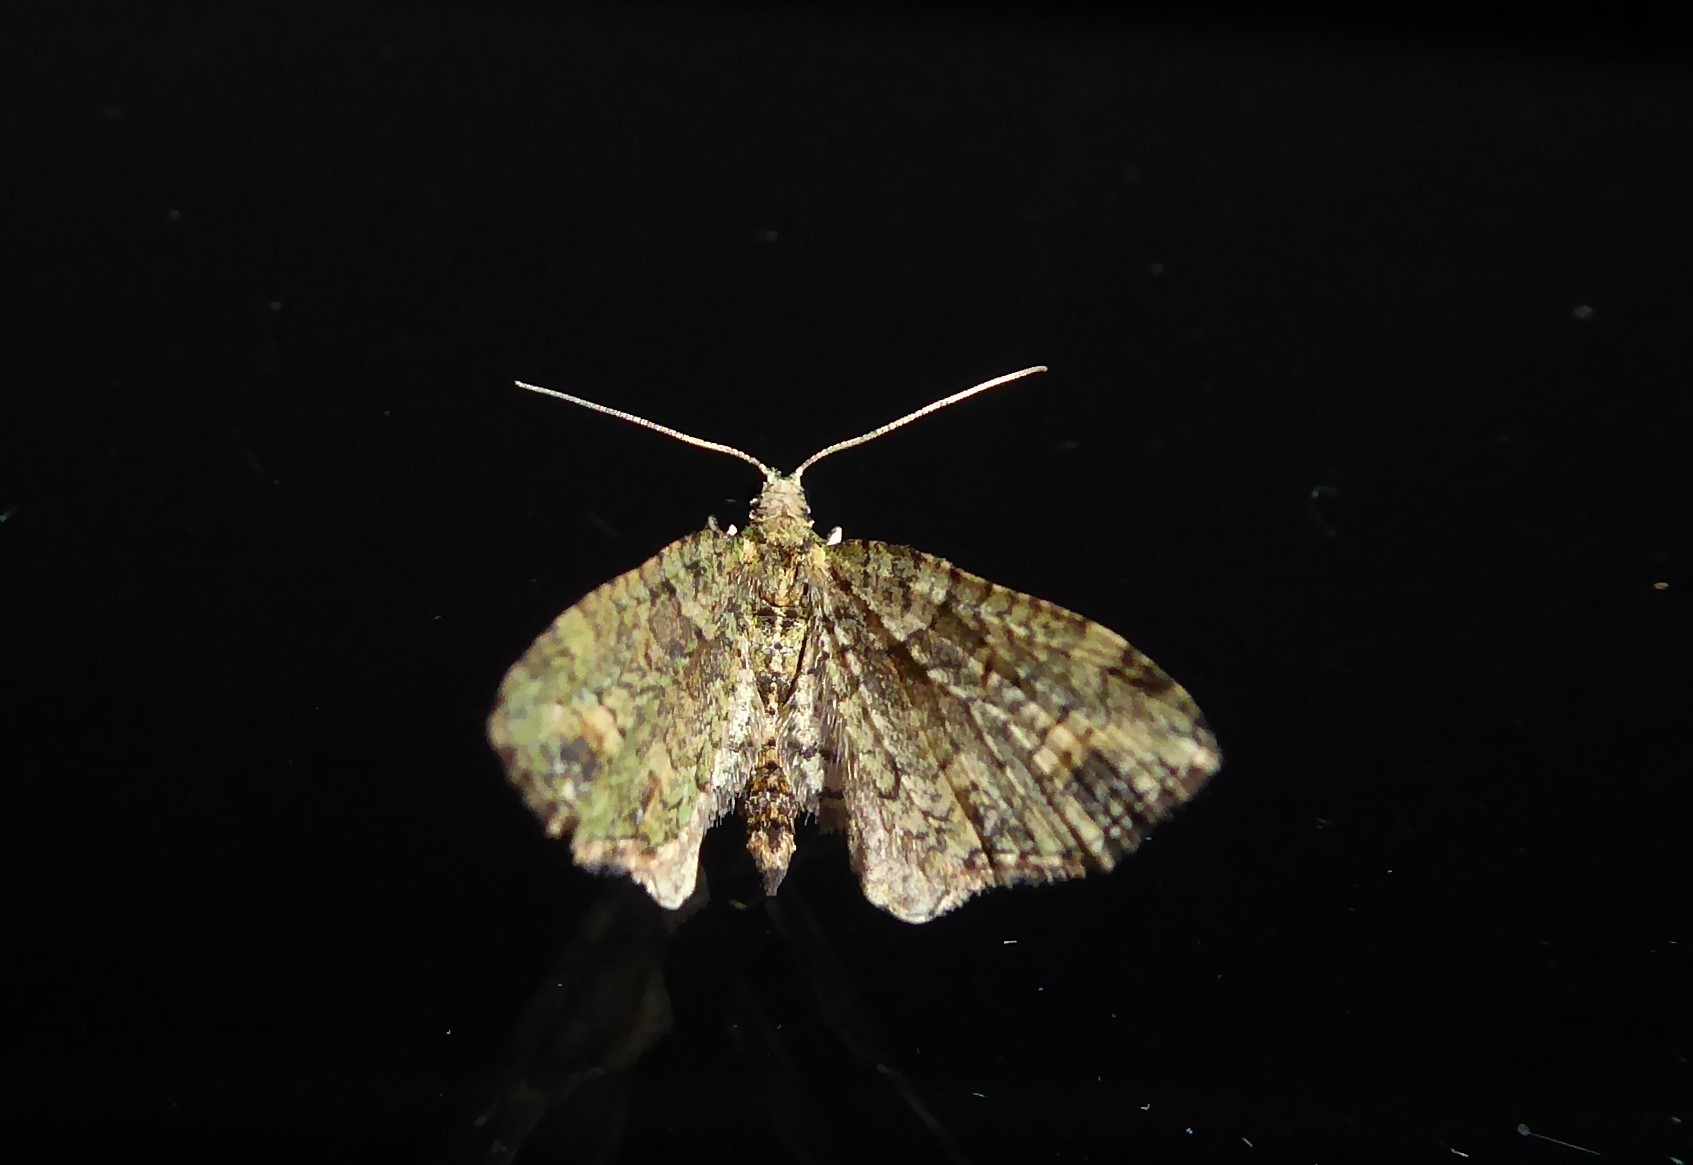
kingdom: Animalia
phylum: Arthropoda
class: Insecta
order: Lepidoptera
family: Geometridae
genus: Idaea
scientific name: Idaea mutanda
